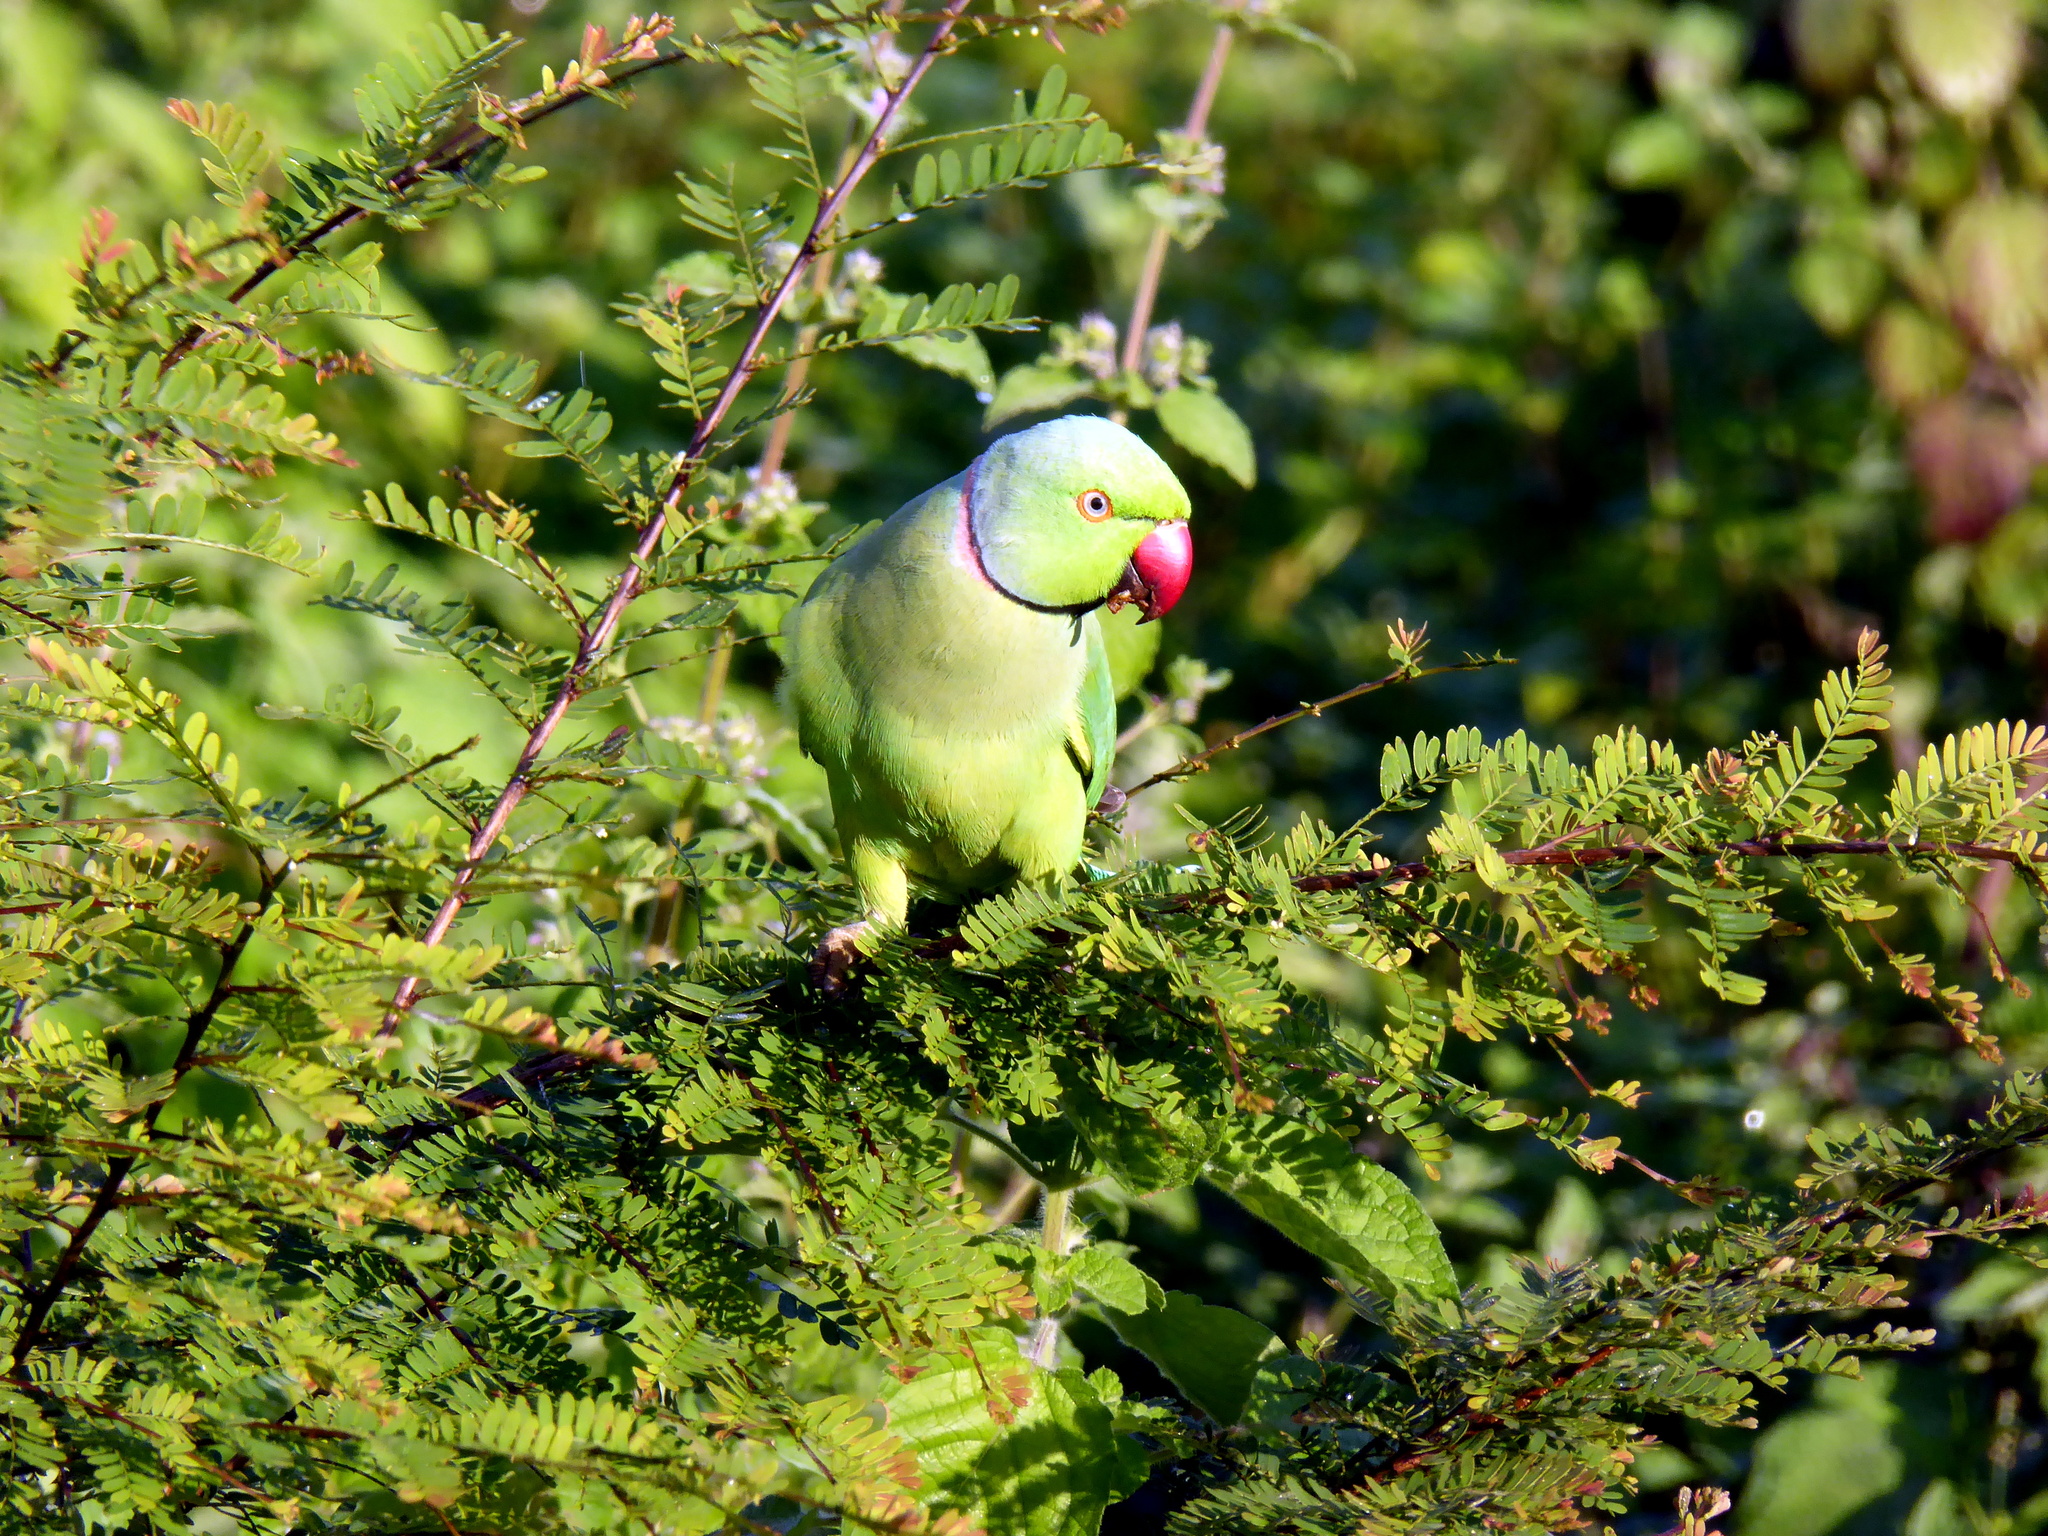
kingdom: Animalia
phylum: Chordata
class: Aves
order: Psittaciformes
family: Psittacidae
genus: Psittacula
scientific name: Psittacula krameri
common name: Rose-ringed parakeet
